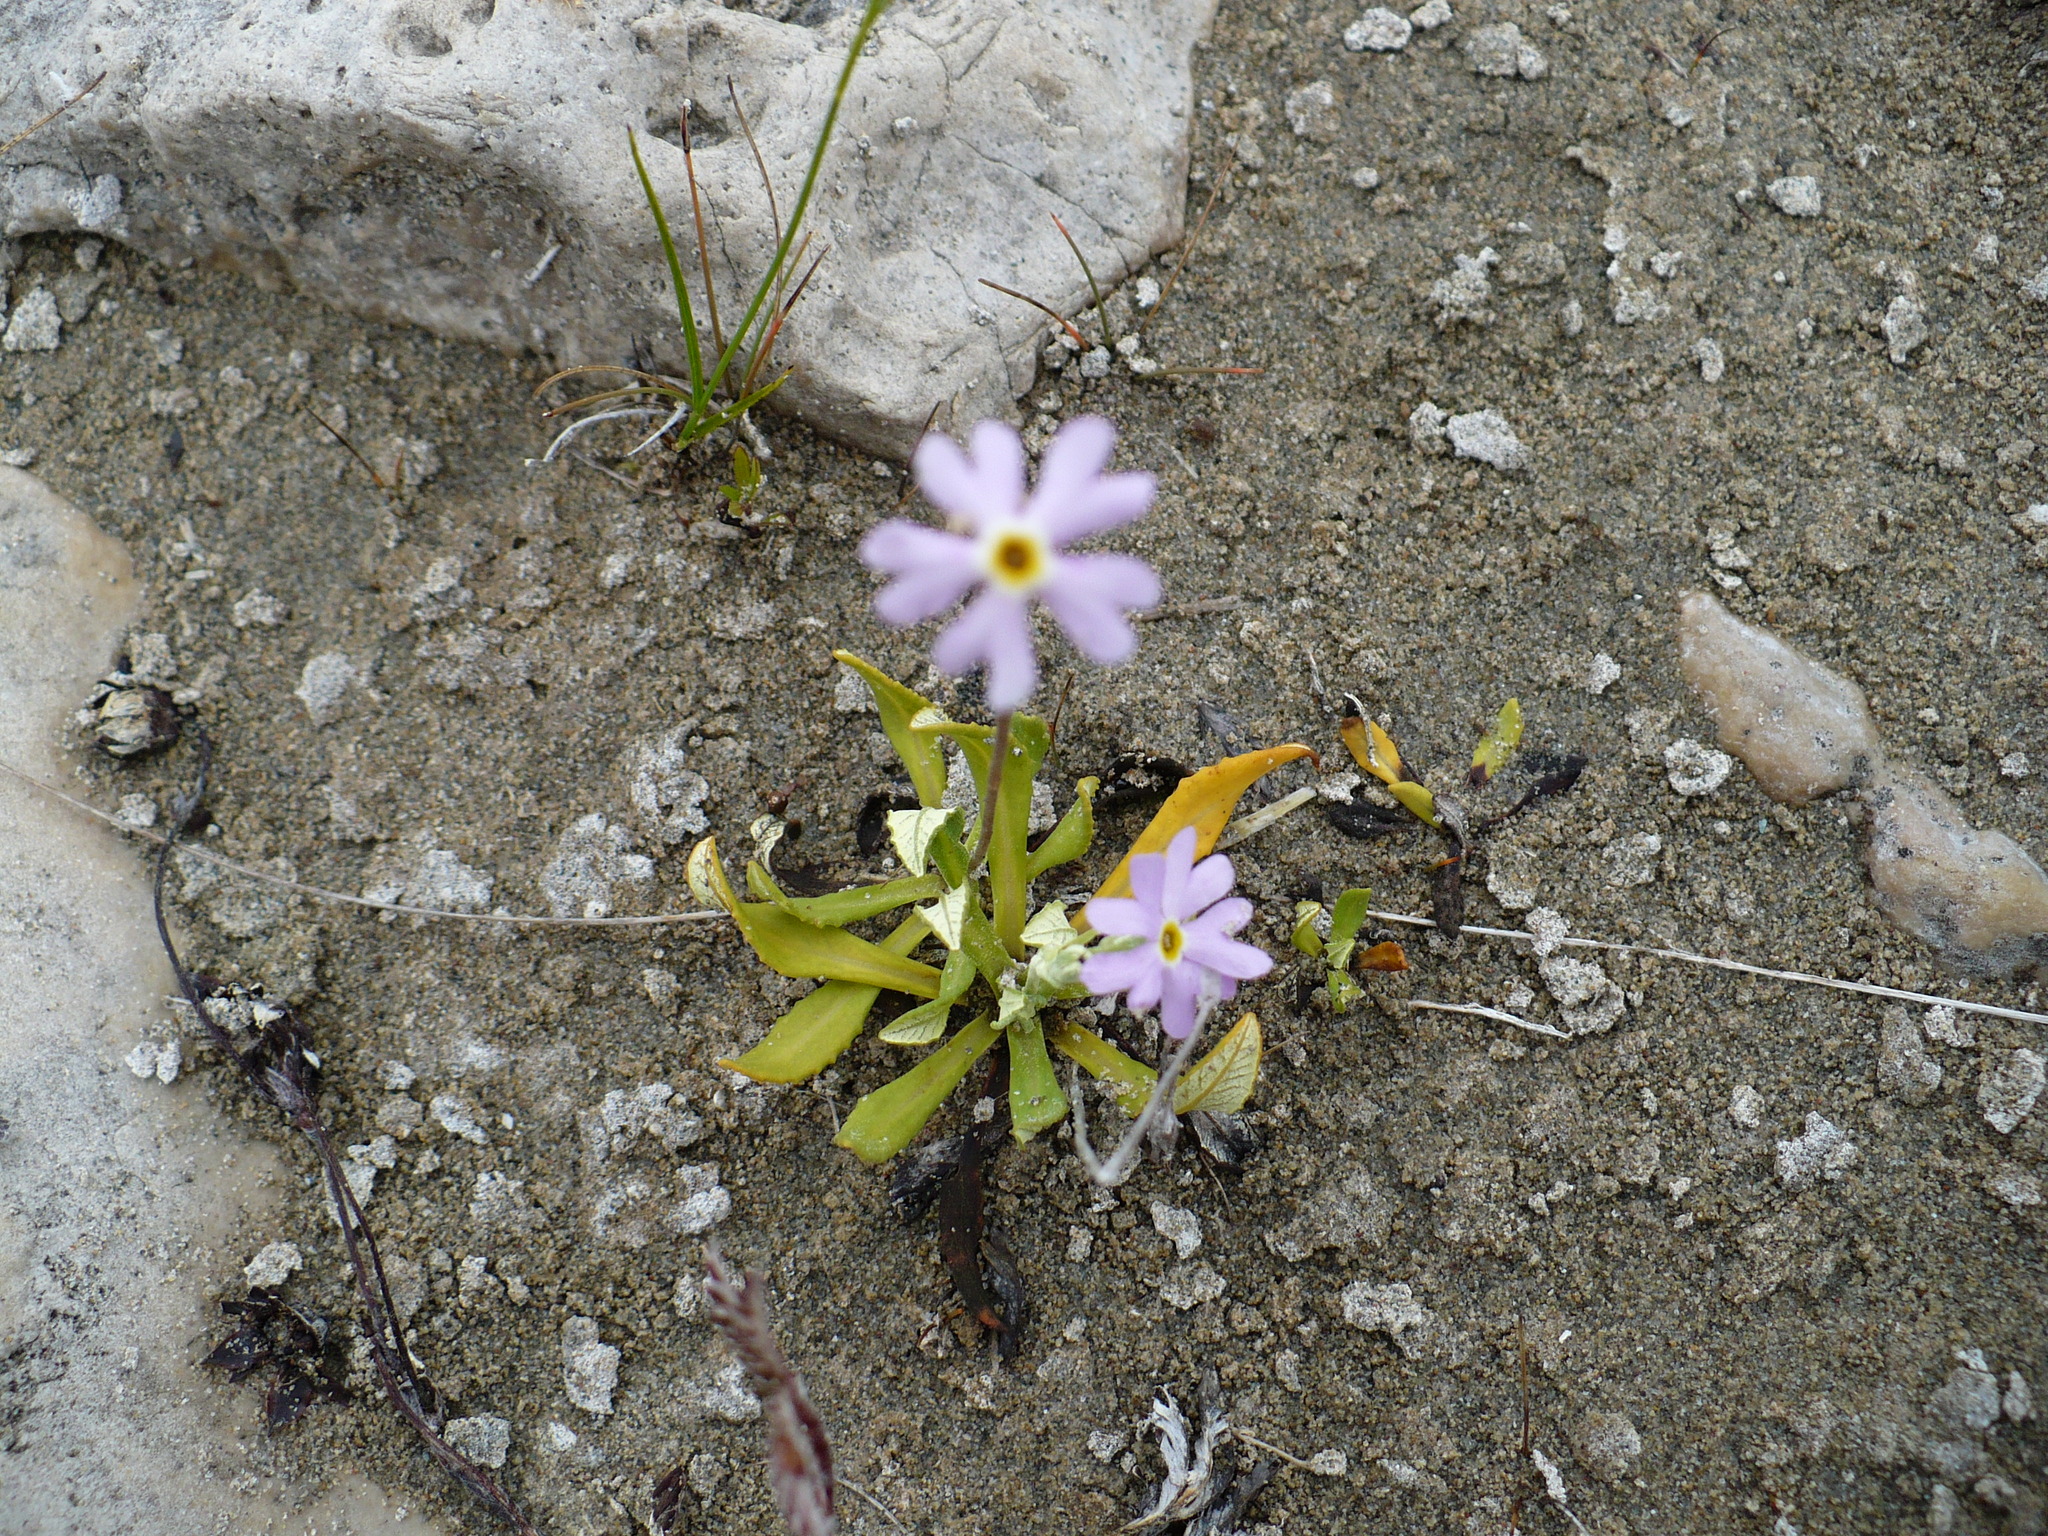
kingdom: Plantae
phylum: Tracheophyta
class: Magnoliopsida
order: Ericales
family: Primulaceae
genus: Primula
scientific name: Primula mistassinica
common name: Bird's-eye primrose
